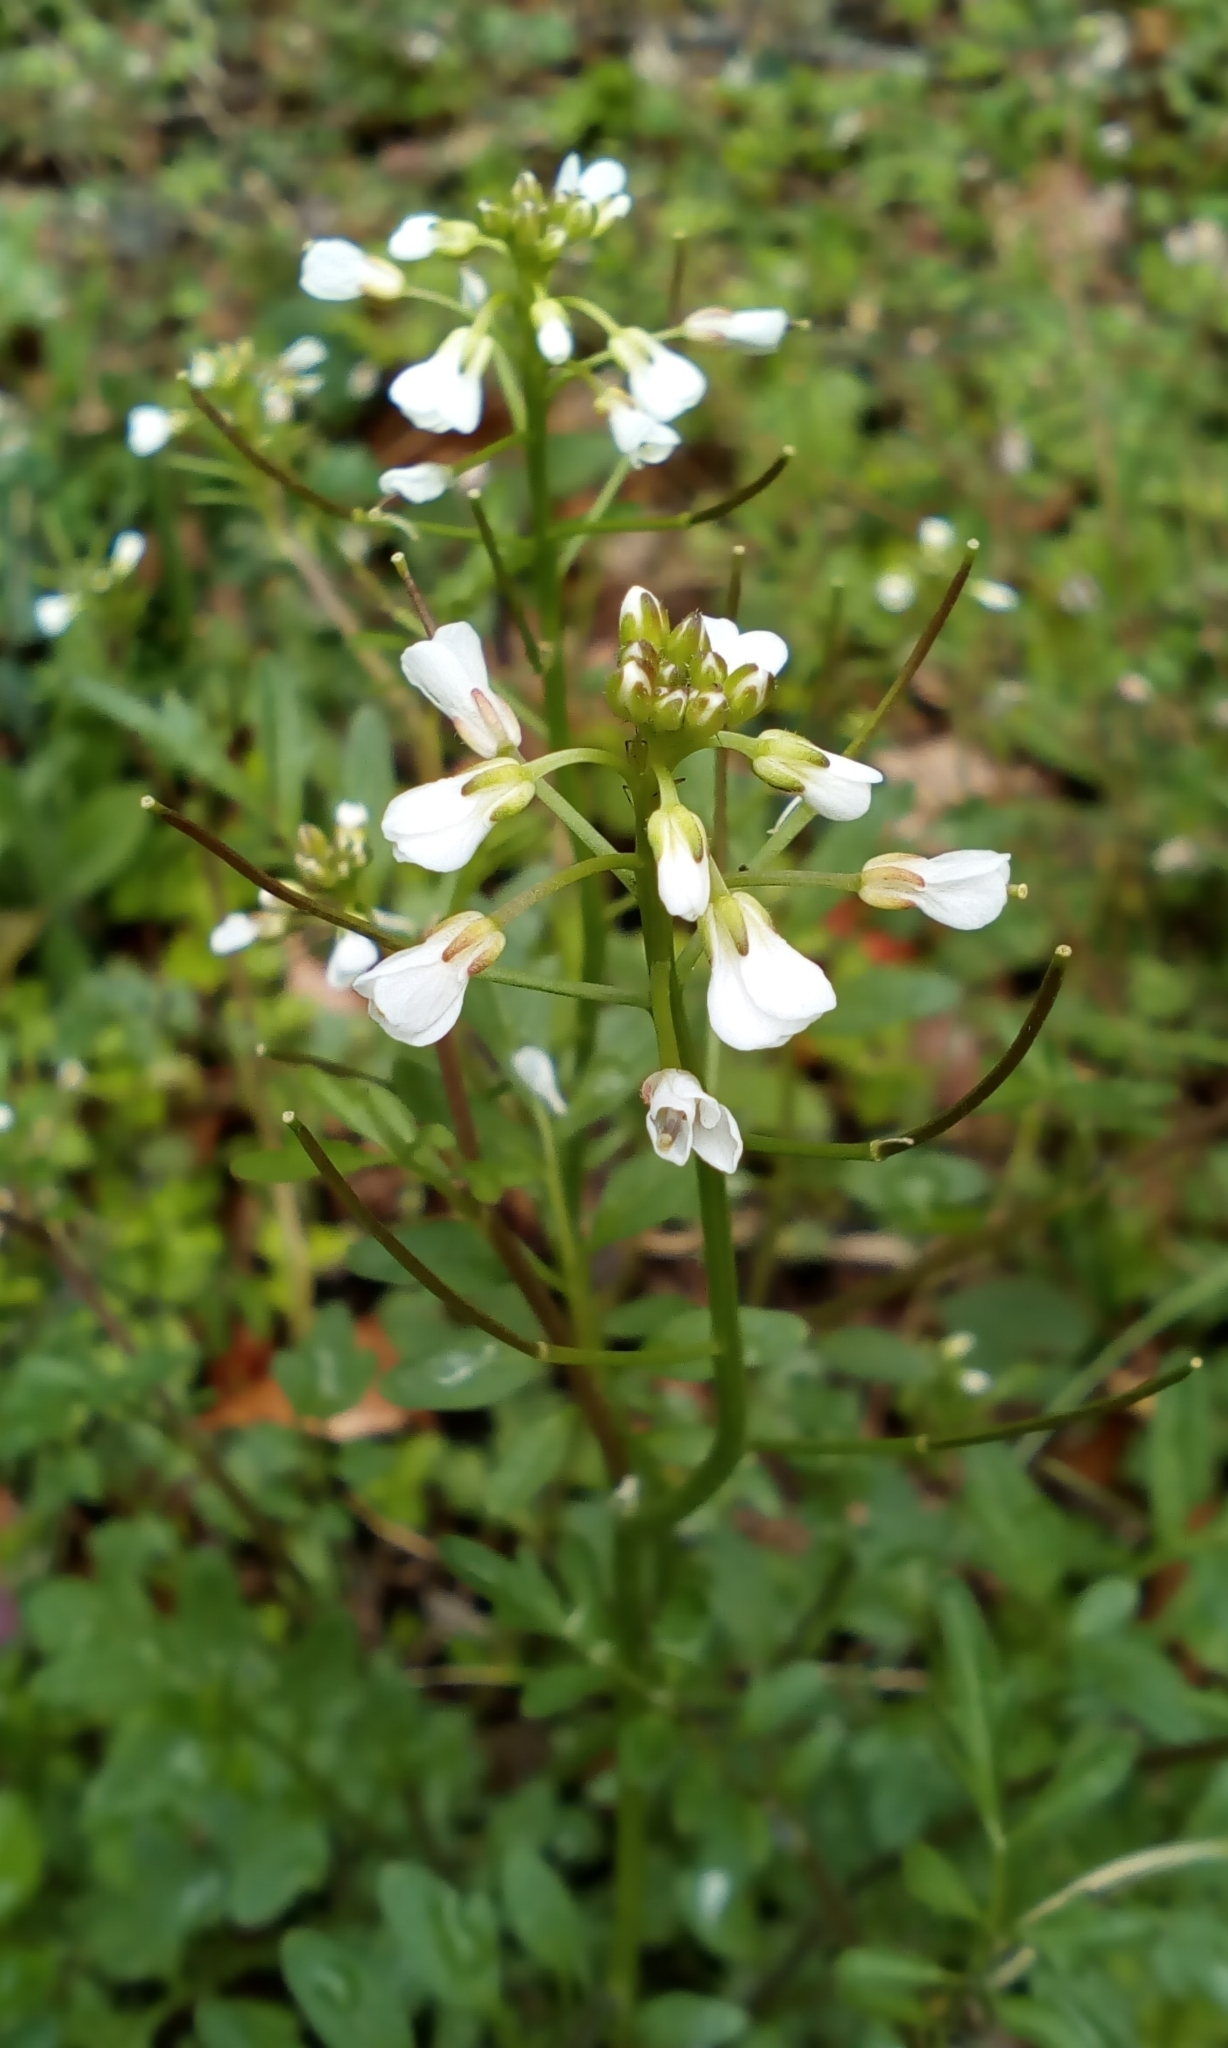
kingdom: Plantae
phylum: Tracheophyta
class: Magnoliopsida
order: Brassicales
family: Brassicaceae
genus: Cardamine
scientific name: Cardamine scutata
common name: Japanese bittercress
